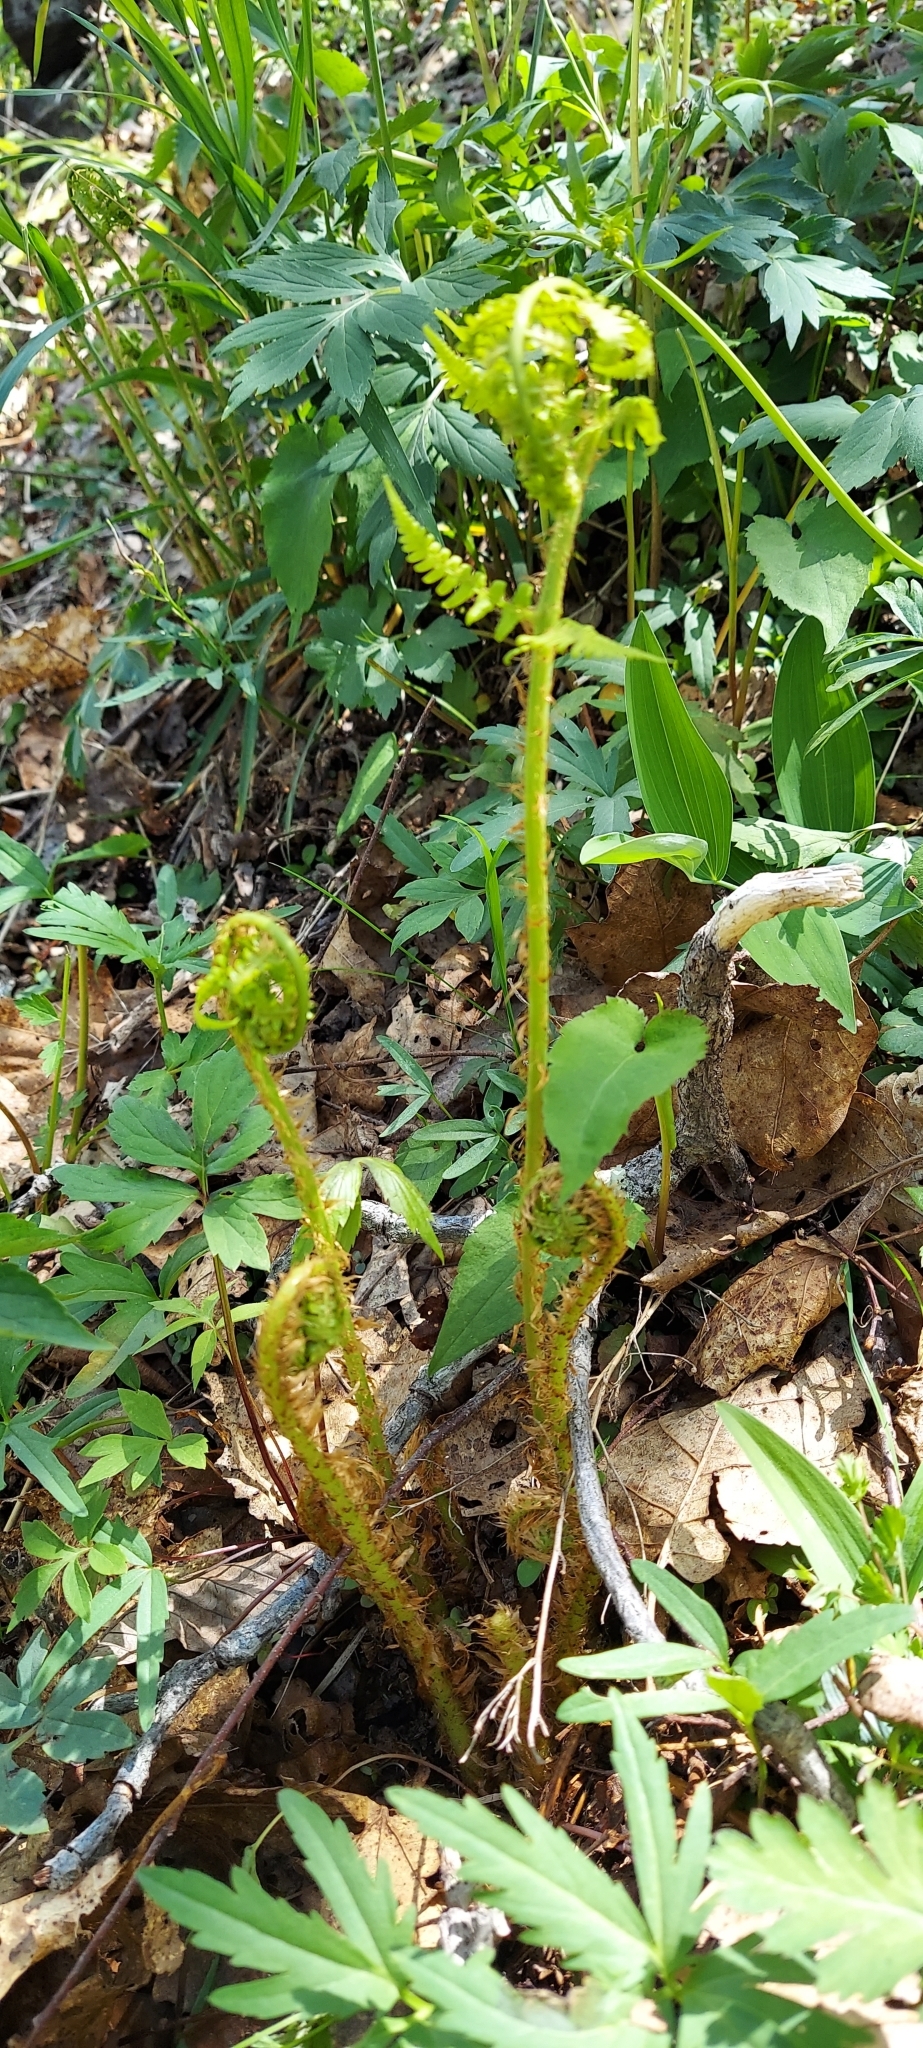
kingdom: Plantae
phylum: Tracheophyta
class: Polypodiopsida
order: Polypodiales
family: Dryopteridaceae
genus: Dryopteris
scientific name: Dryopteris marginalis
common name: Marginal wood fern
